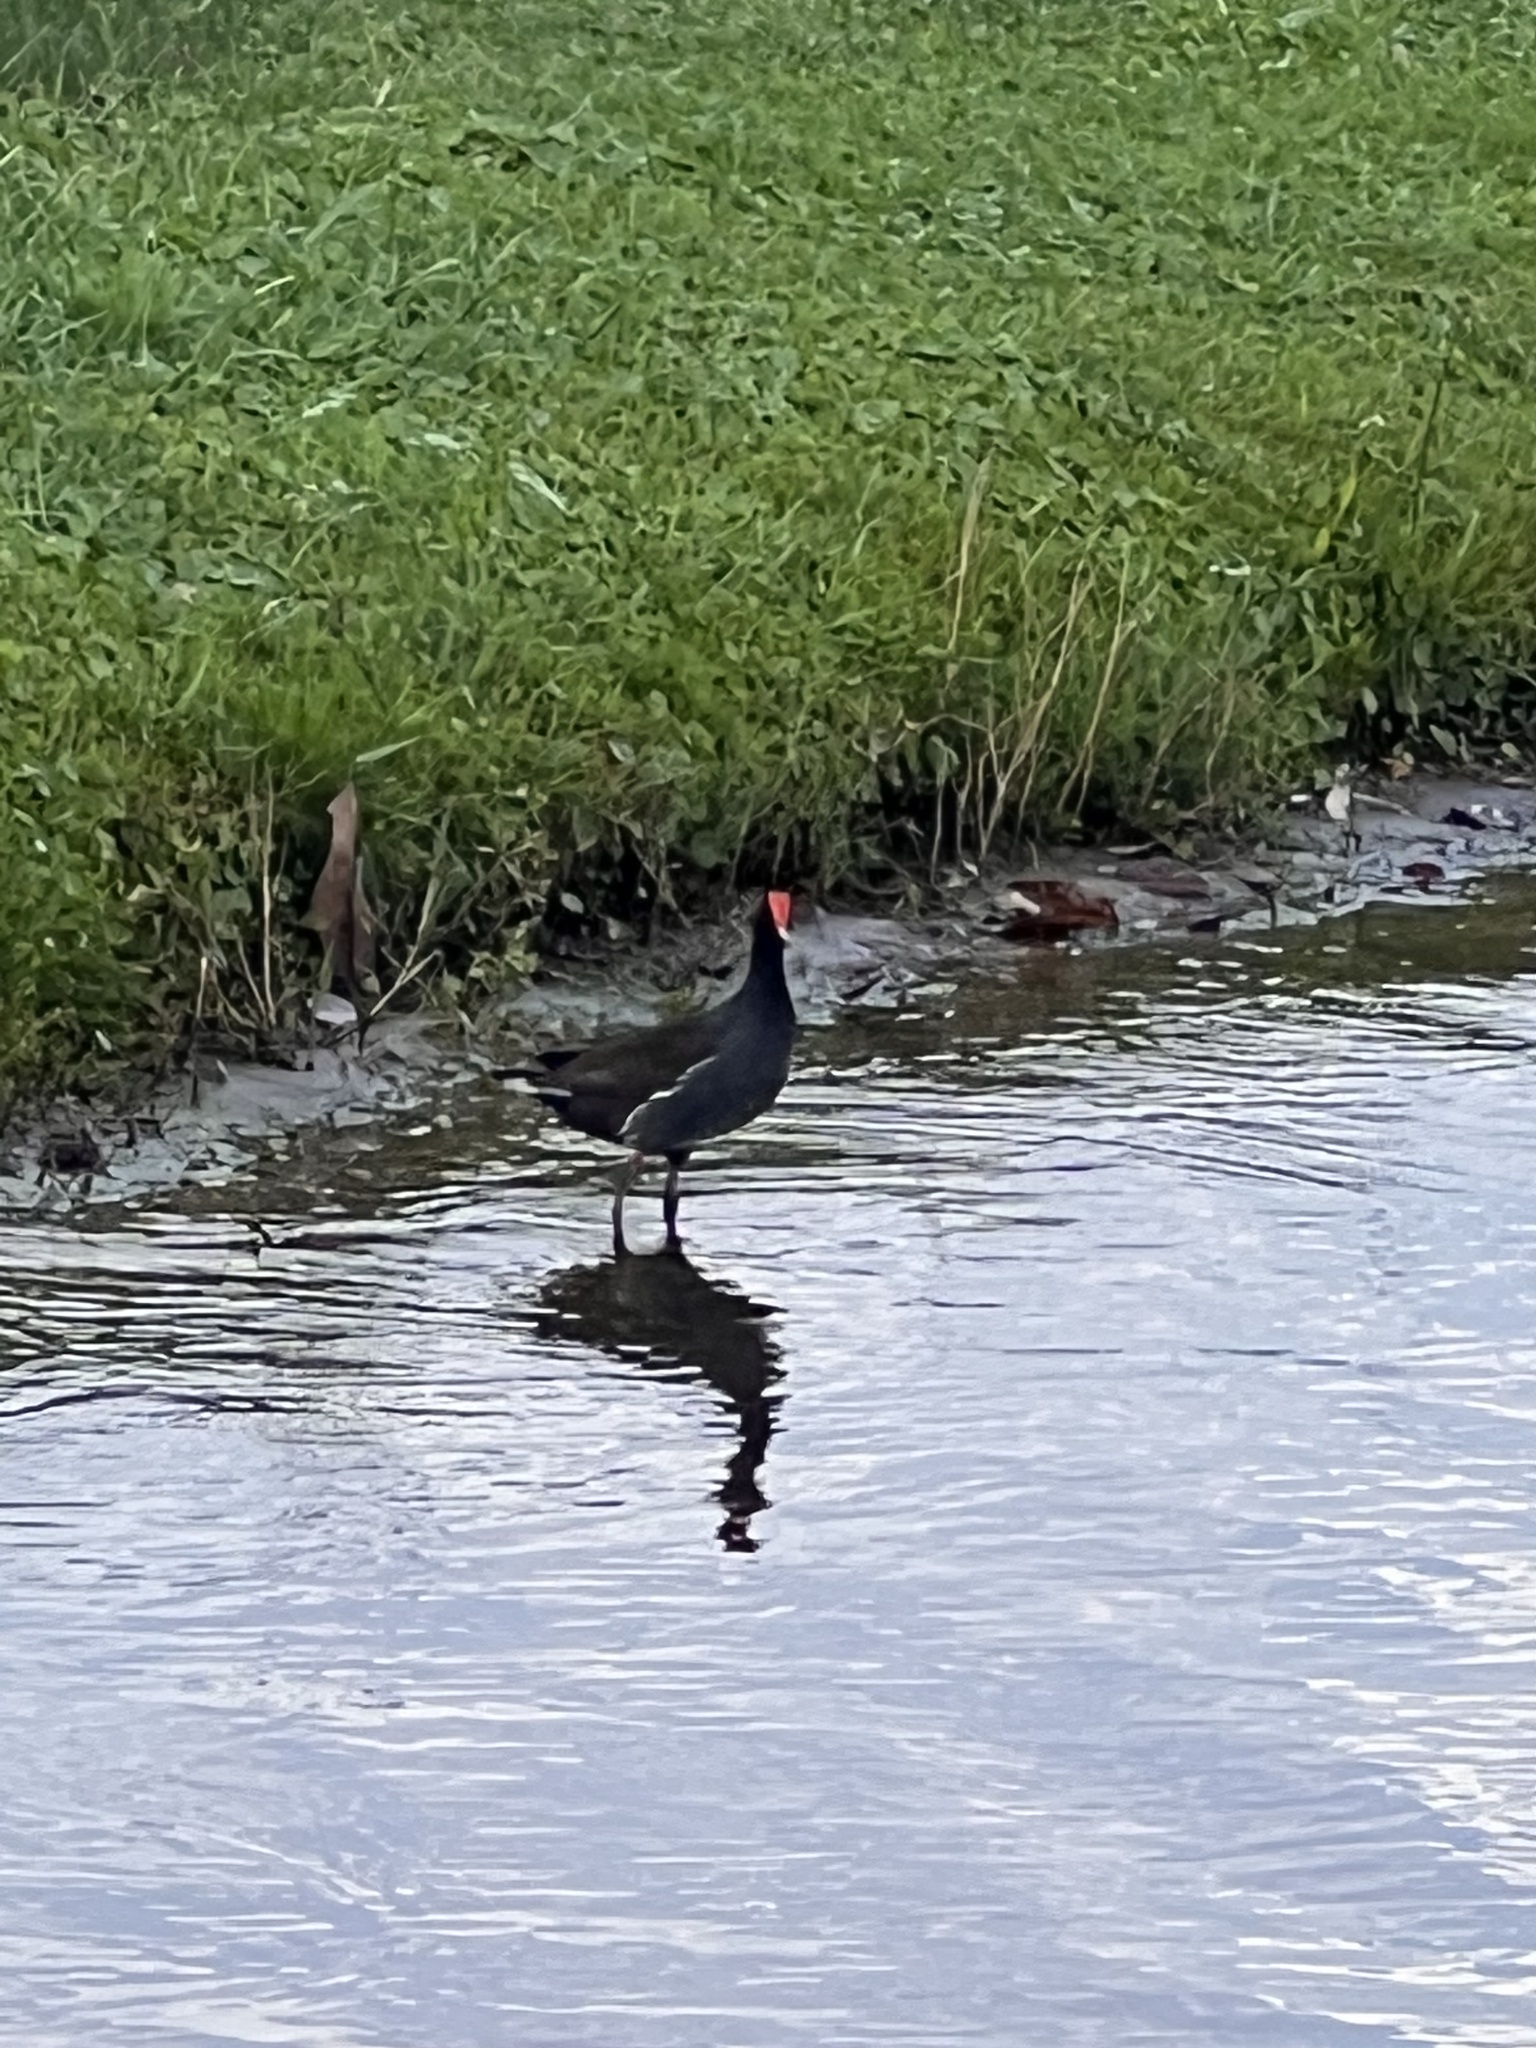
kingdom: Animalia
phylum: Chordata
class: Aves
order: Gruiformes
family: Rallidae
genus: Gallinula
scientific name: Gallinula chloropus
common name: Common moorhen
